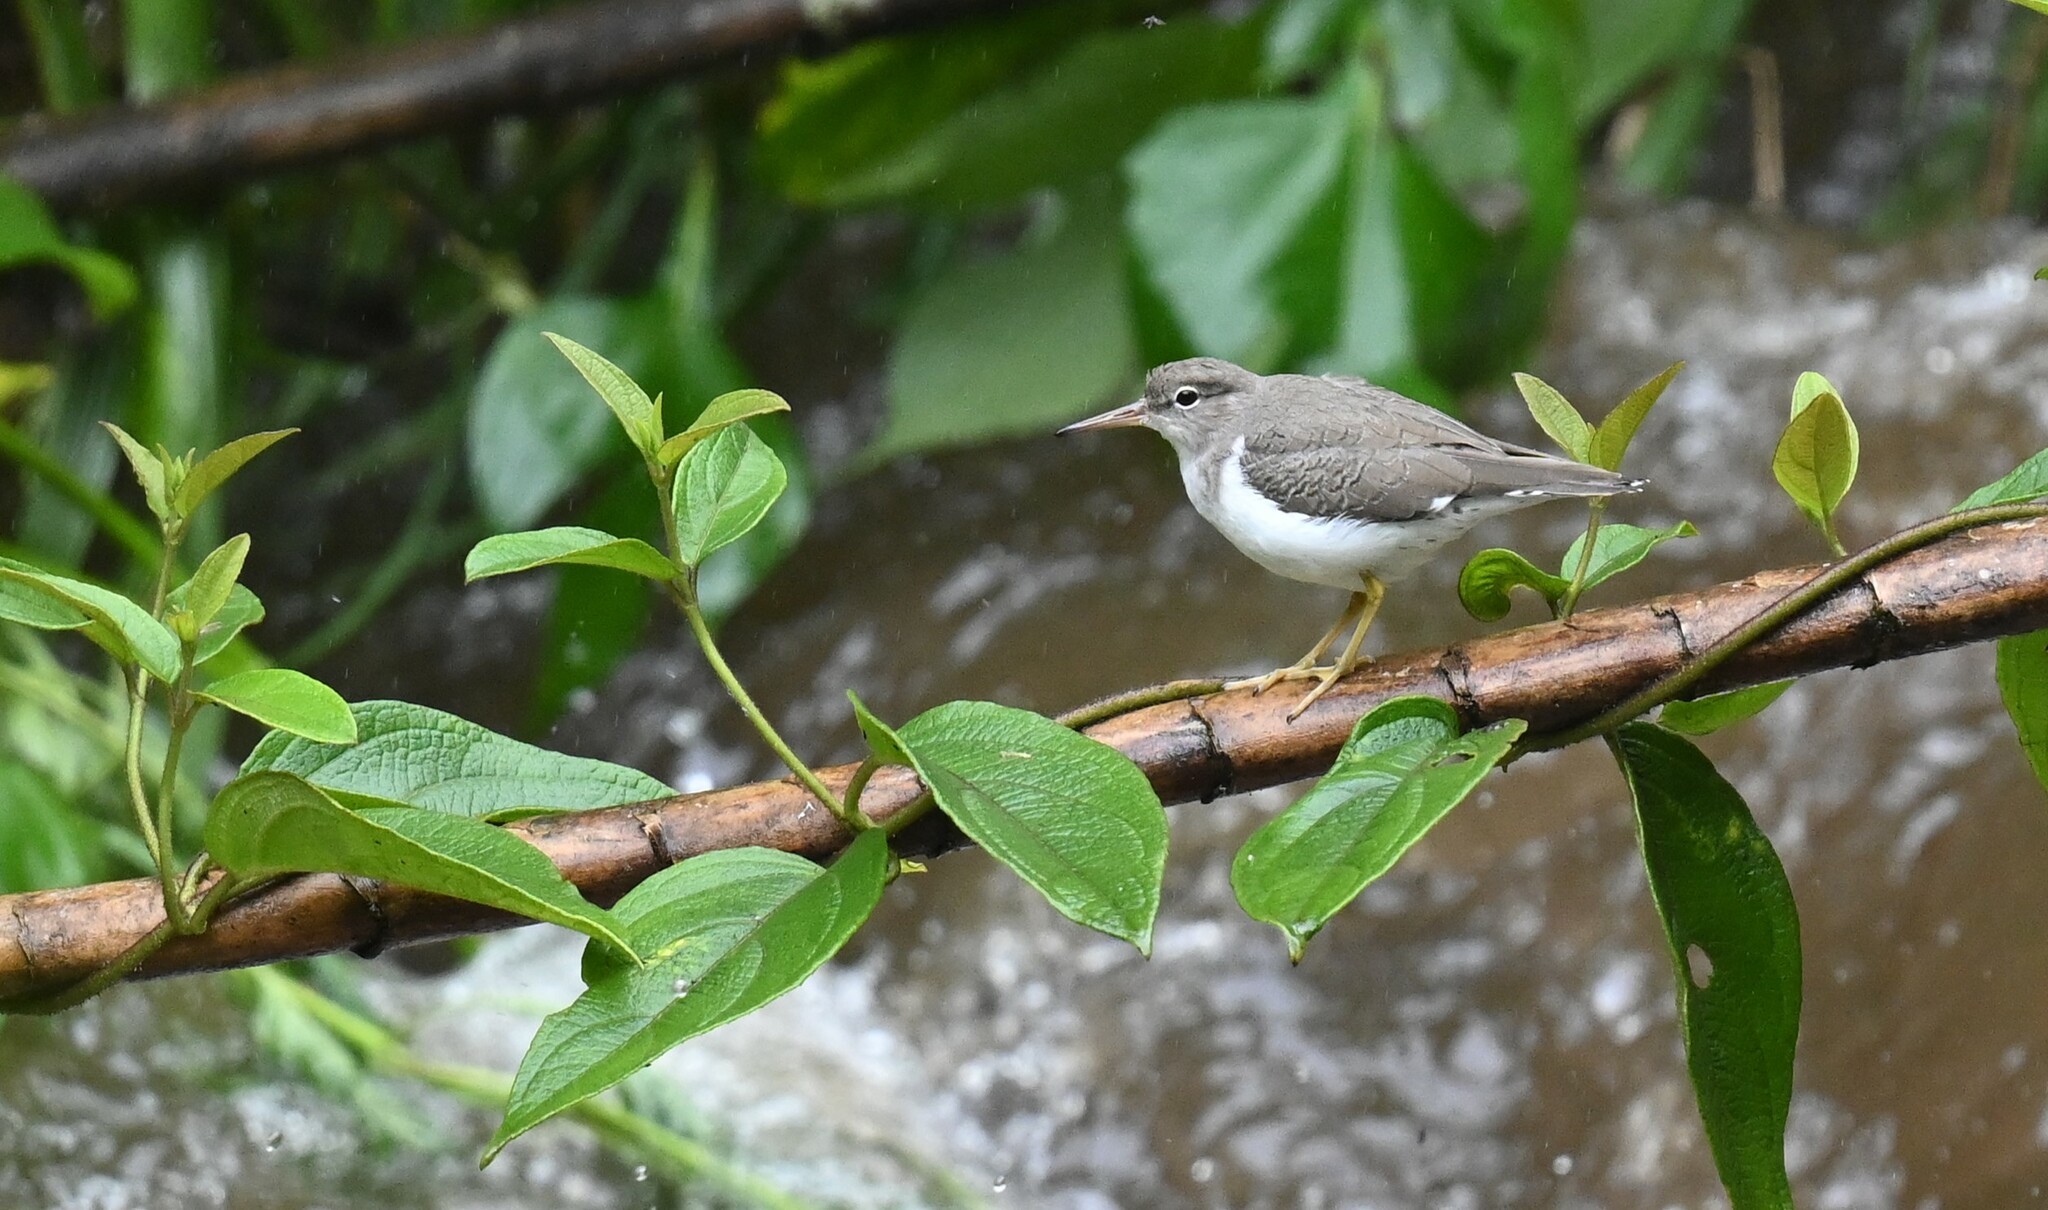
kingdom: Animalia
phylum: Chordata
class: Aves
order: Charadriiformes
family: Scolopacidae
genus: Actitis
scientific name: Actitis macularius
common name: Spotted sandpiper
